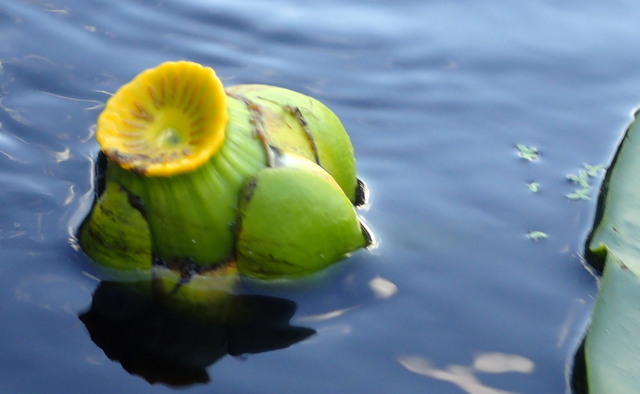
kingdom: Plantae
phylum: Tracheophyta
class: Magnoliopsida
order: Nymphaeales
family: Nymphaeaceae
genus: Nuphar
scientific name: Nuphar advena
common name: Spatter-dock
